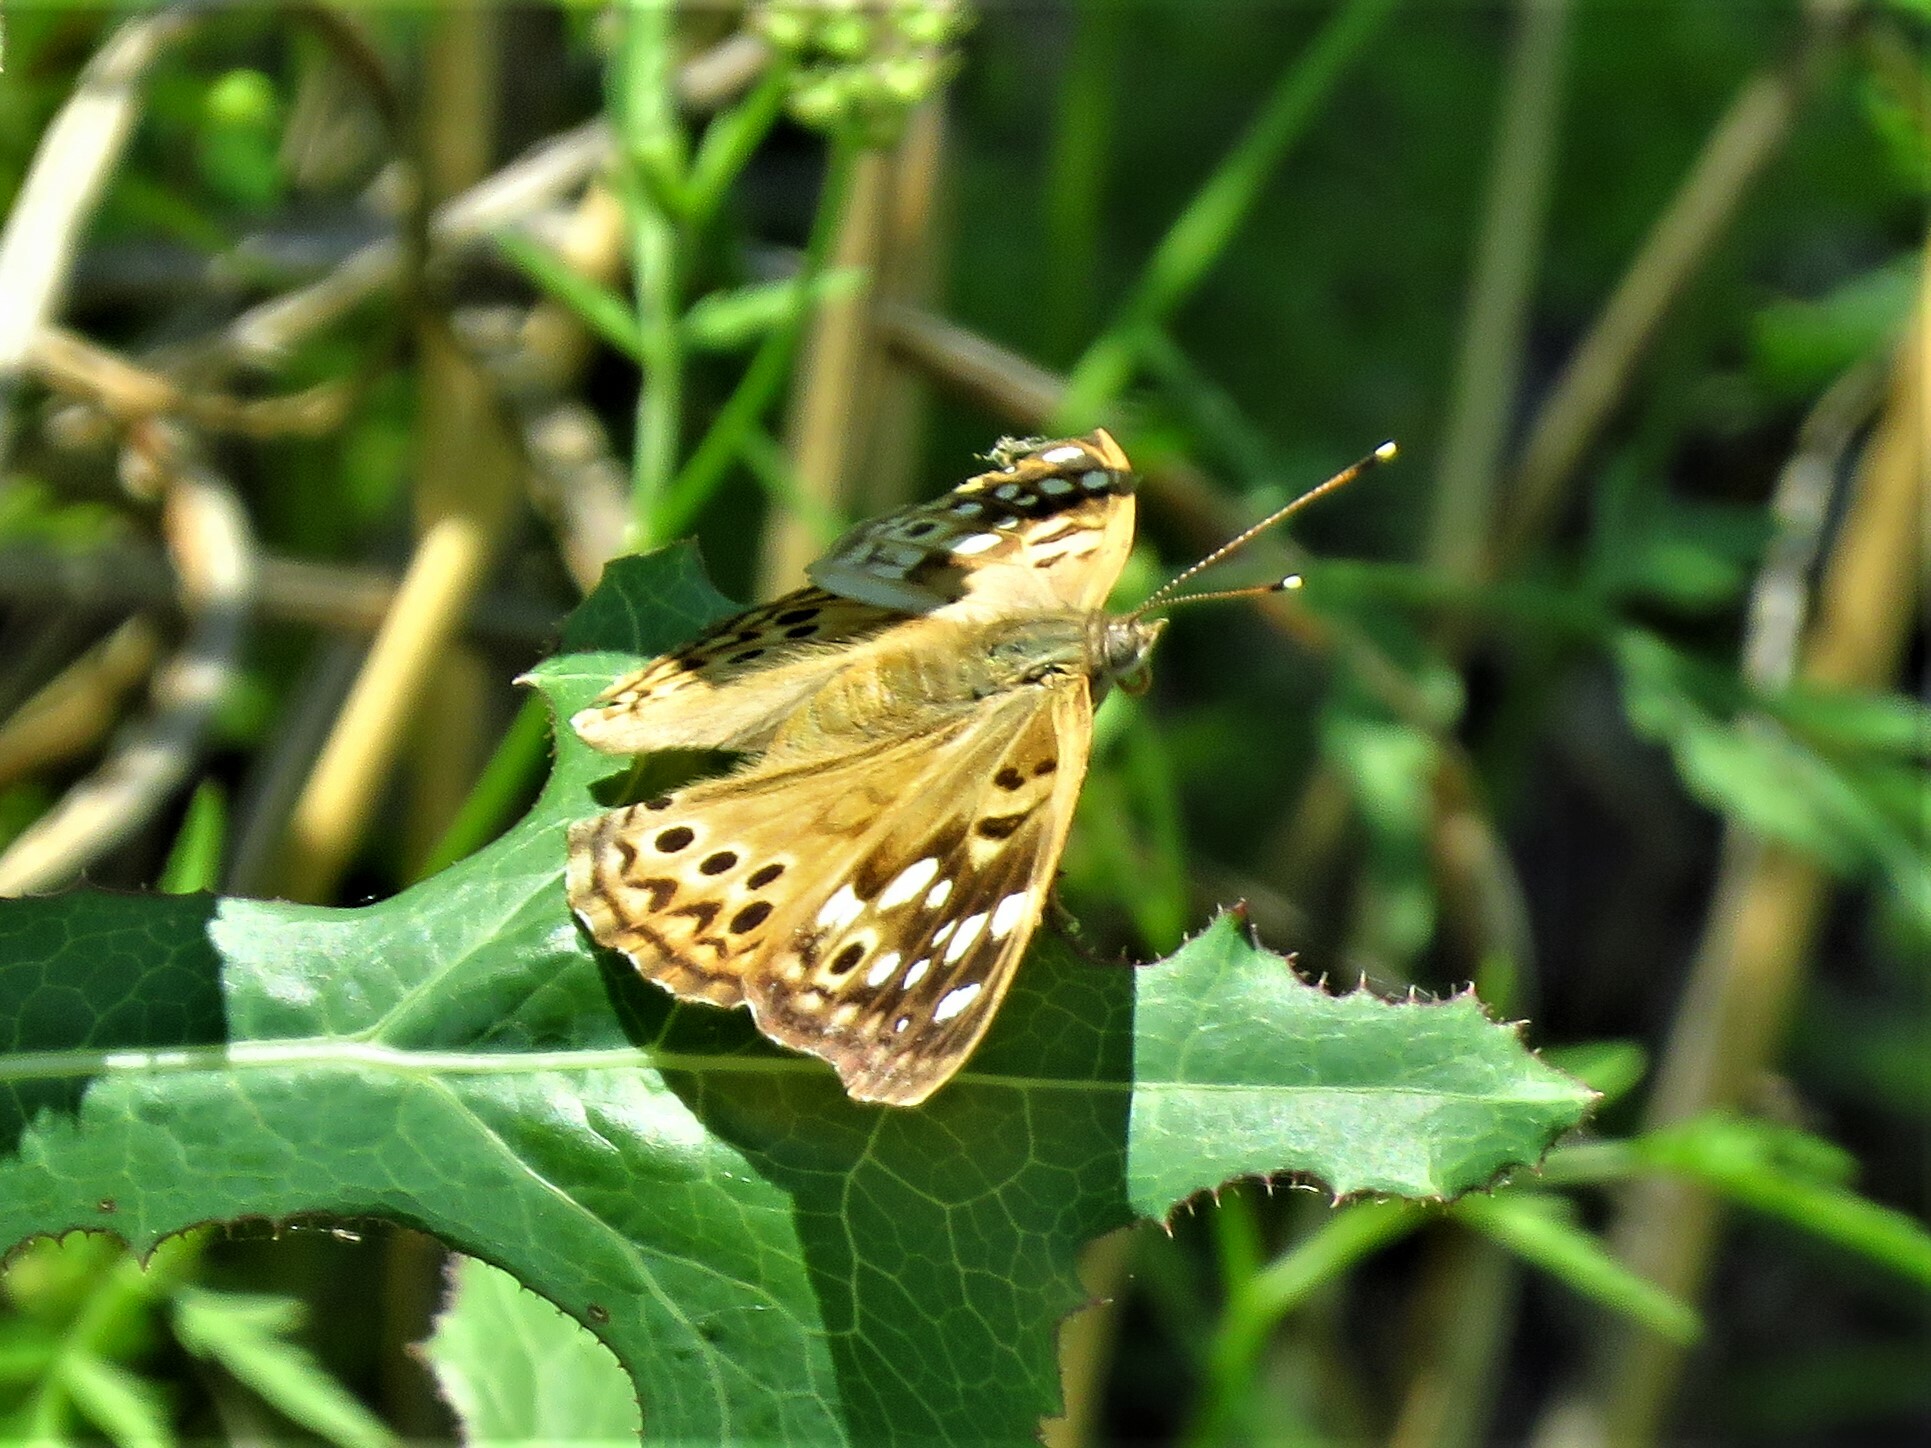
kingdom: Animalia
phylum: Arthropoda
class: Insecta
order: Lepidoptera
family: Nymphalidae
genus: Asterocampa
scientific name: Asterocampa celtis
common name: Hackberry emperor
